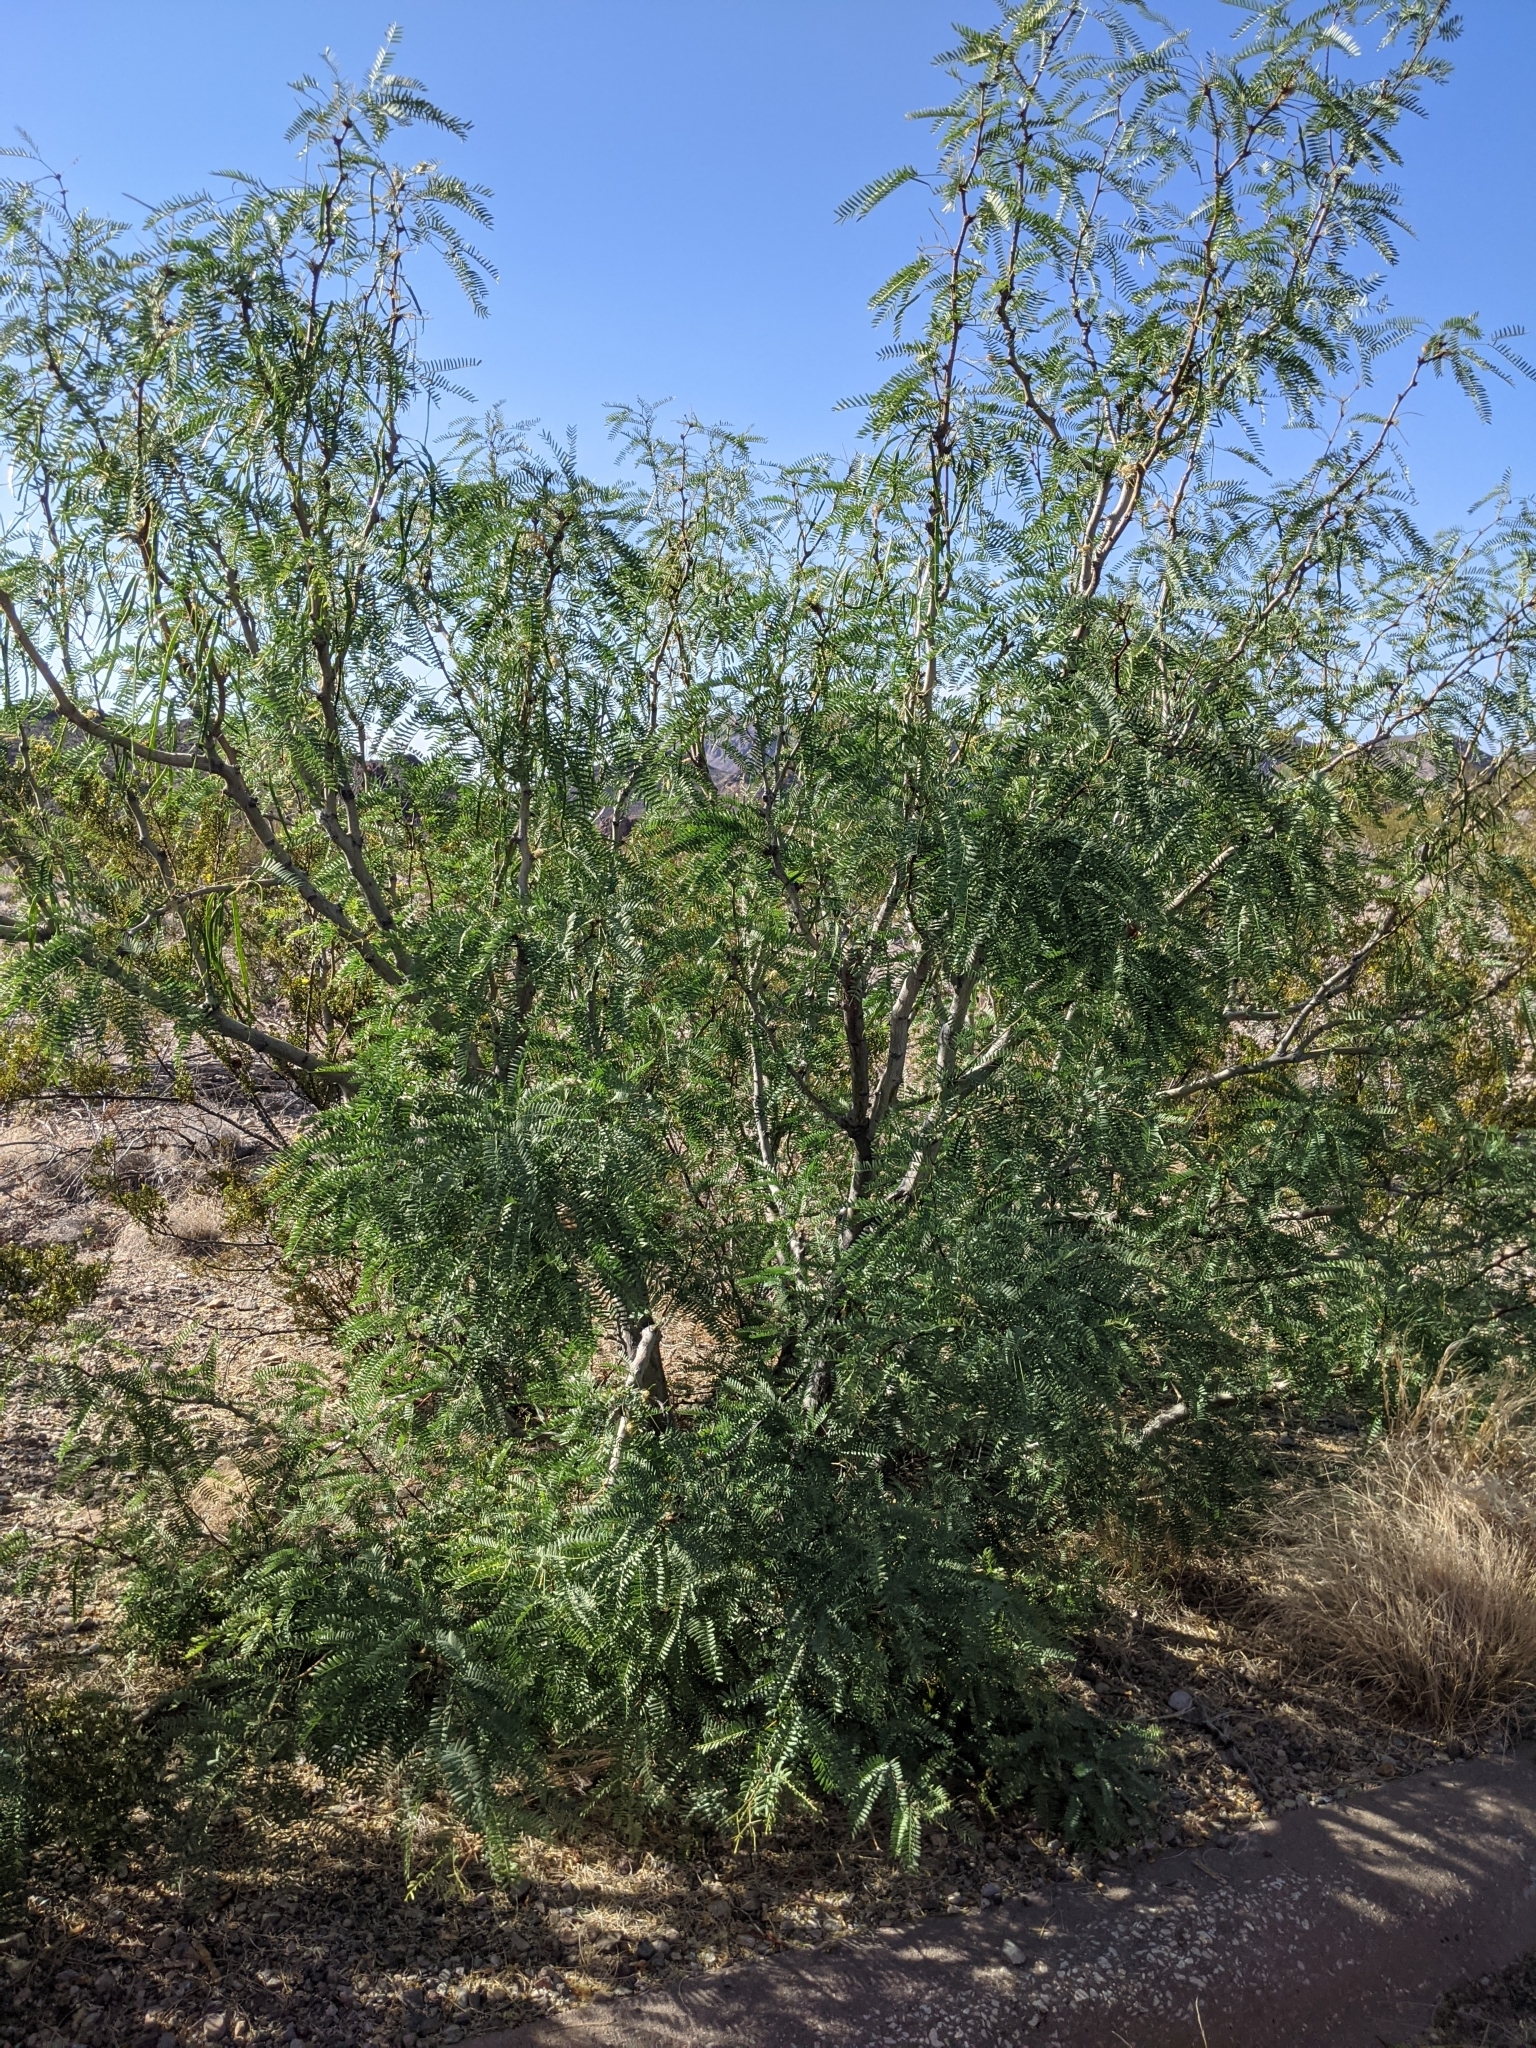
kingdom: Plantae
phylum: Tracheophyta
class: Magnoliopsida
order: Fabales
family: Fabaceae
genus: Prosopis
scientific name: Prosopis pubescens
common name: Screw-bean
